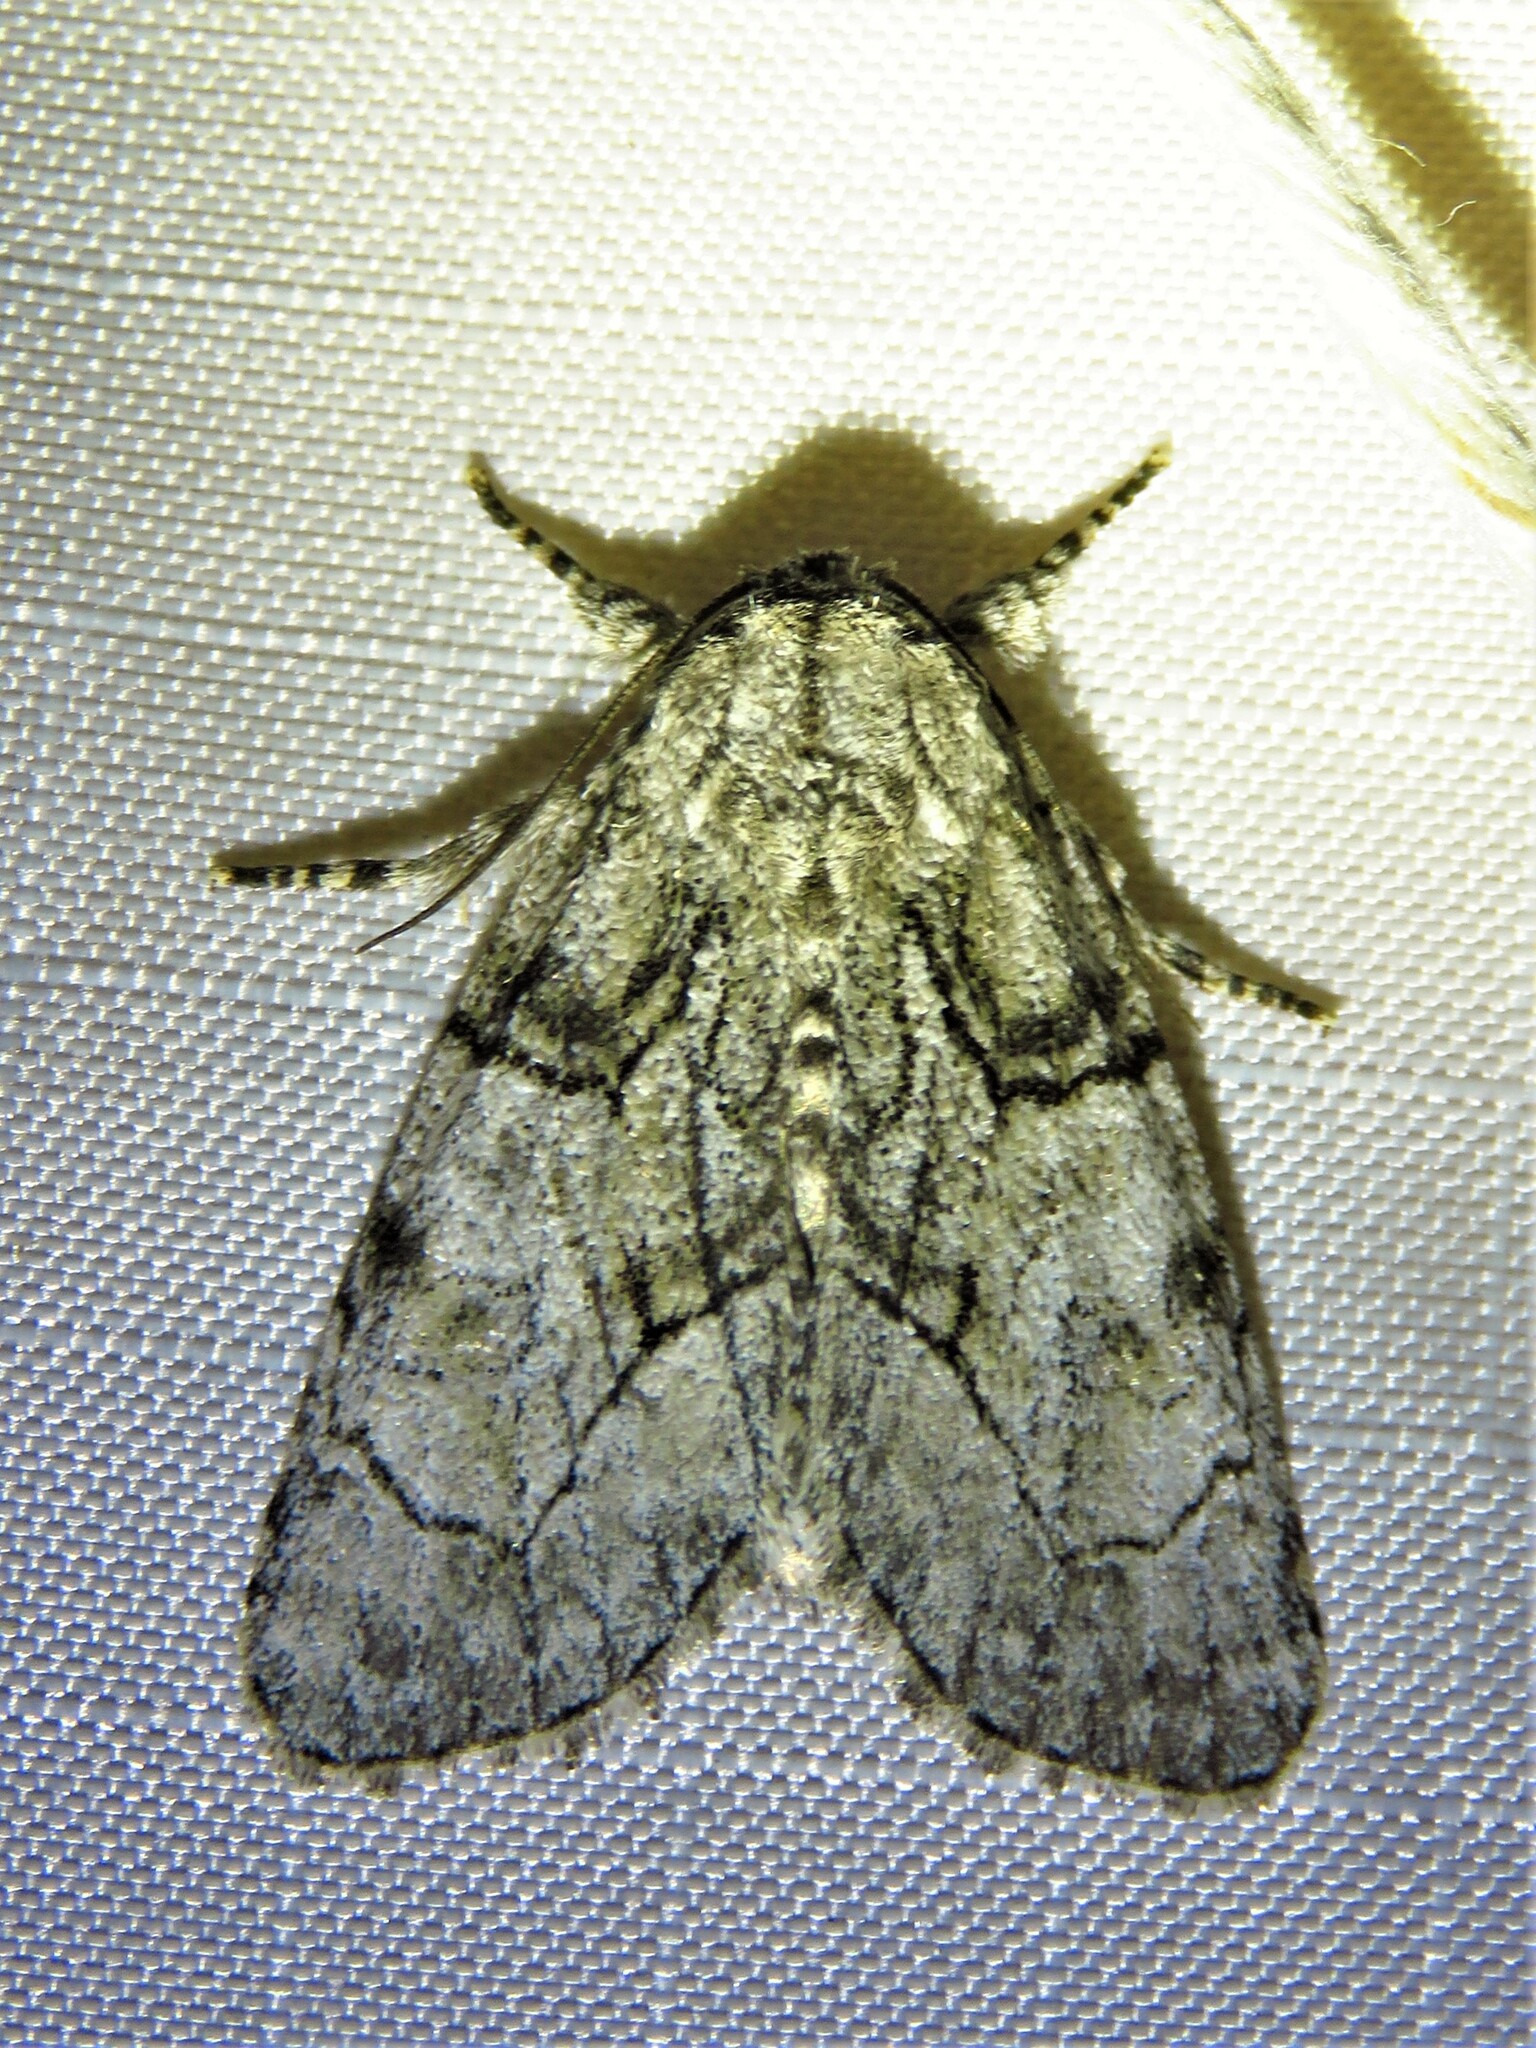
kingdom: Animalia
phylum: Arthropoda
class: Insecta
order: Lepidoptera
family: Noctuidae
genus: Raphia
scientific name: Raphia frater
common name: Brother
